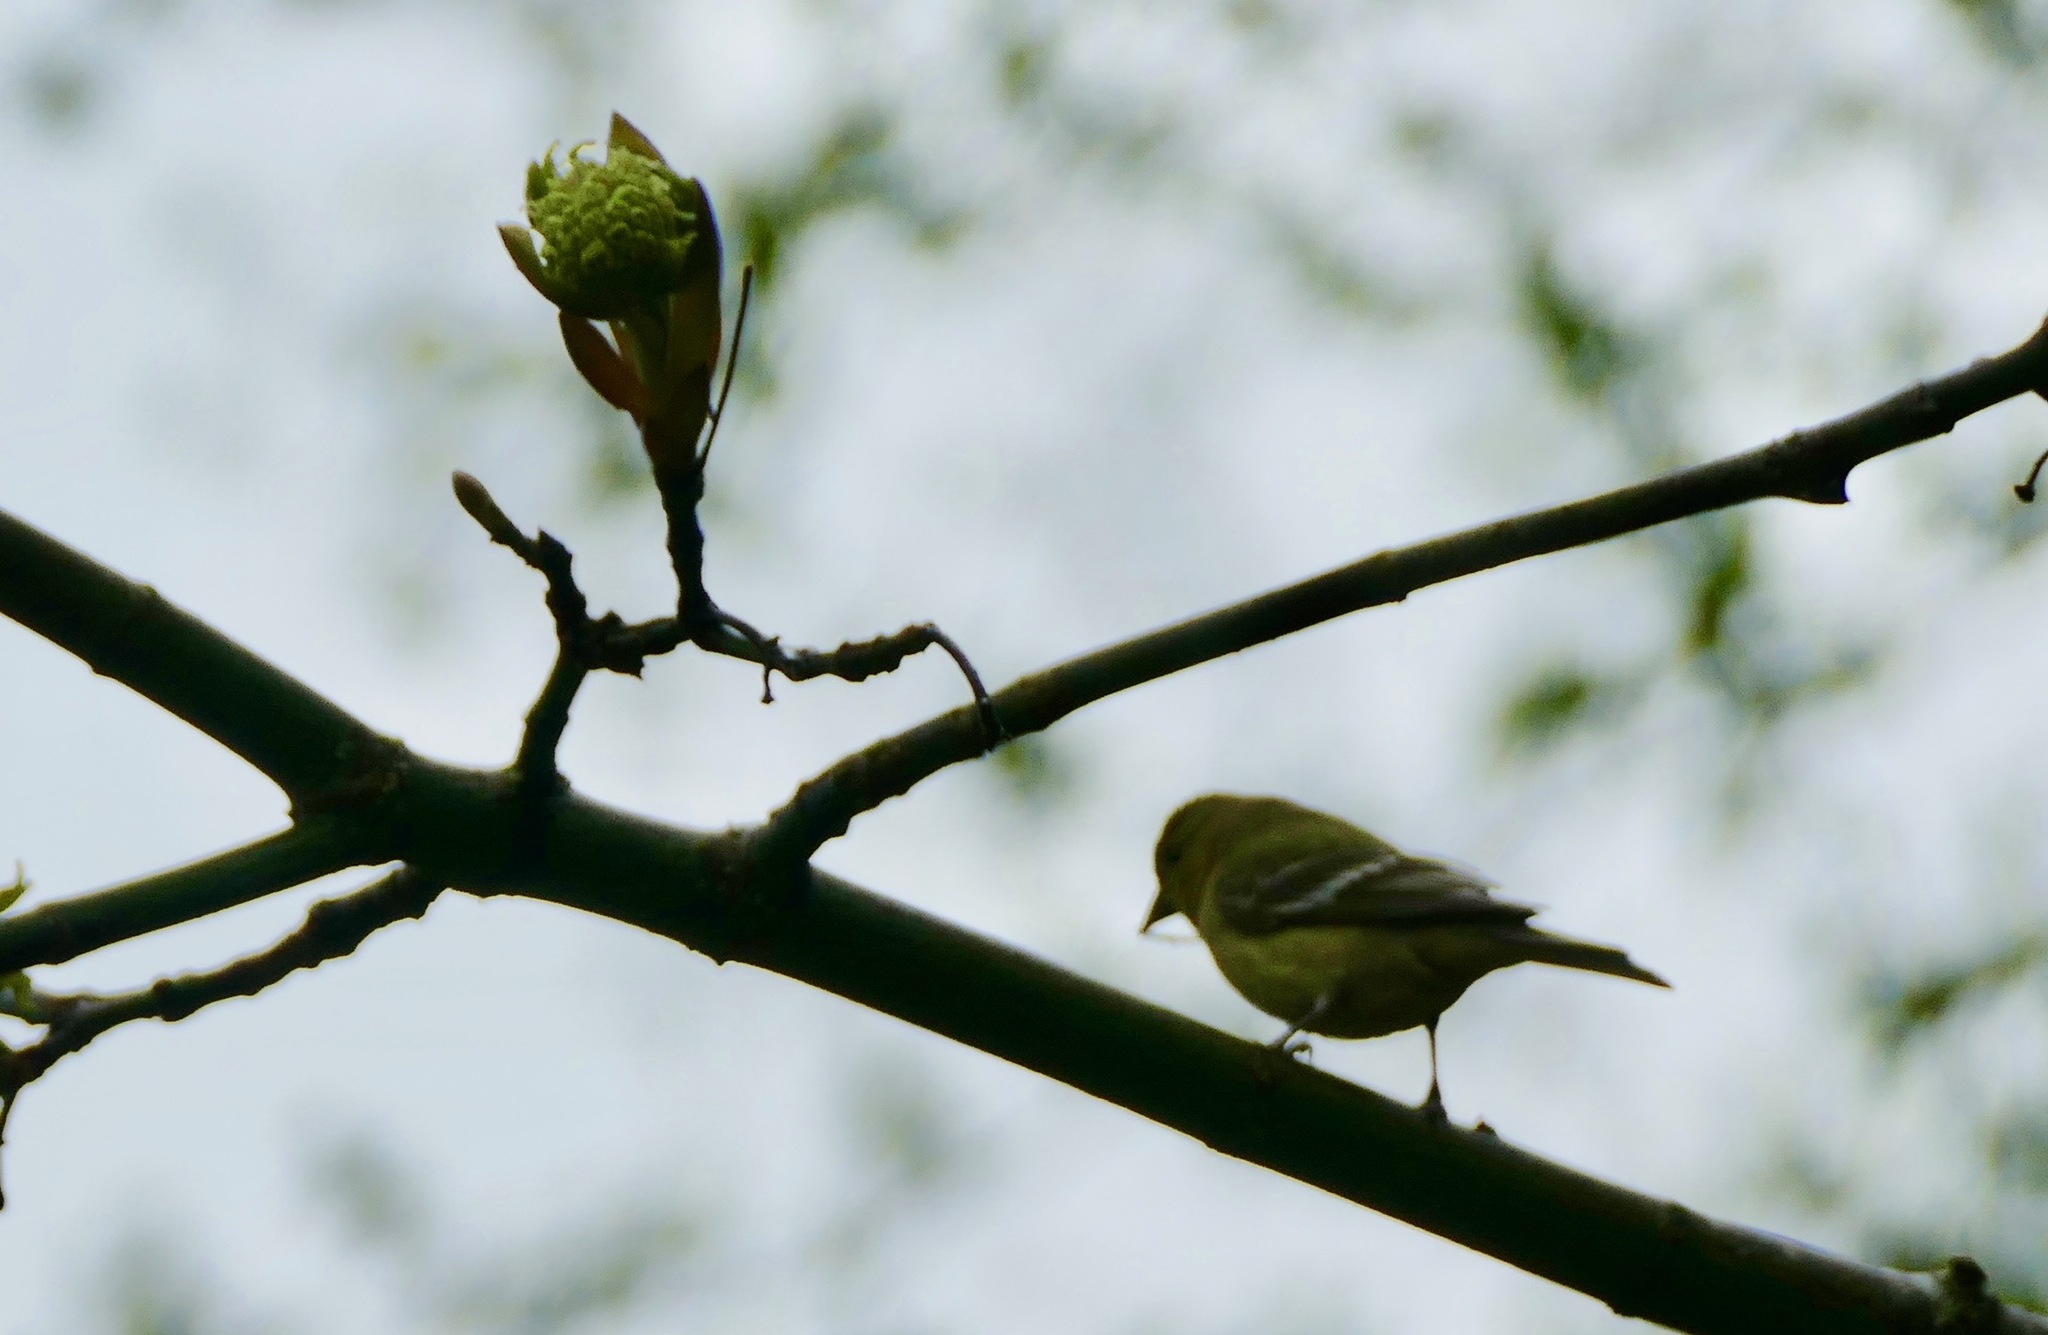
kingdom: Animalia
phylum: Chordata
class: Aves
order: Passeriformes
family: Fringillidae
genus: Spinus
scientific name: Spinus psaltria
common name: Lesser goldfinch
